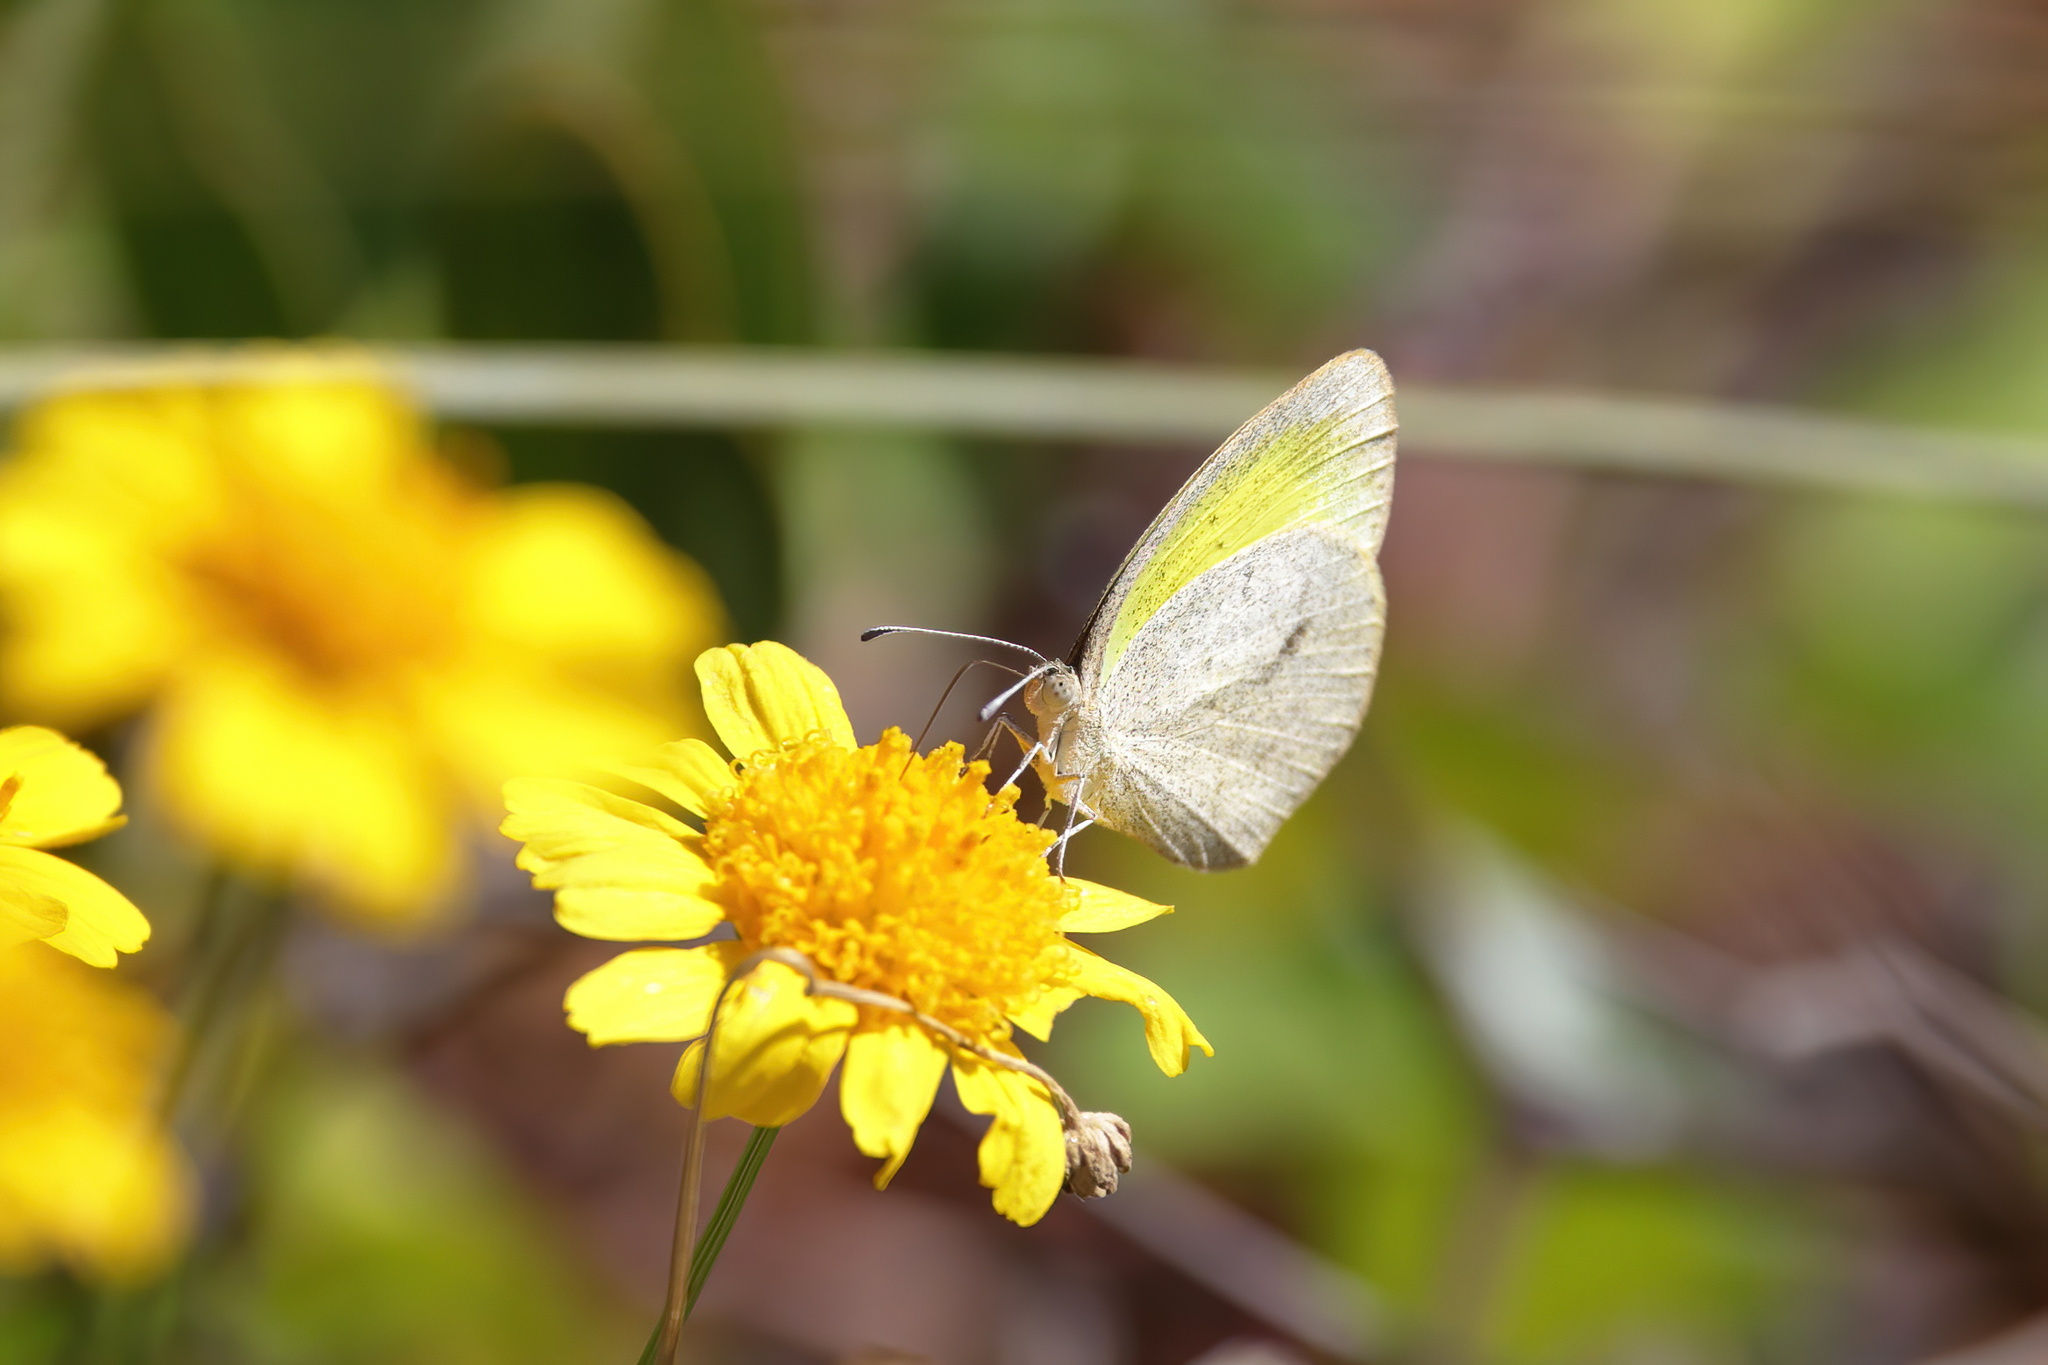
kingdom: Animalia
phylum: Arthropoda
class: Insecta
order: Lepidoptera
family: Pieridae
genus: Eurema
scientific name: Eurema daira
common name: Barred sulphur
